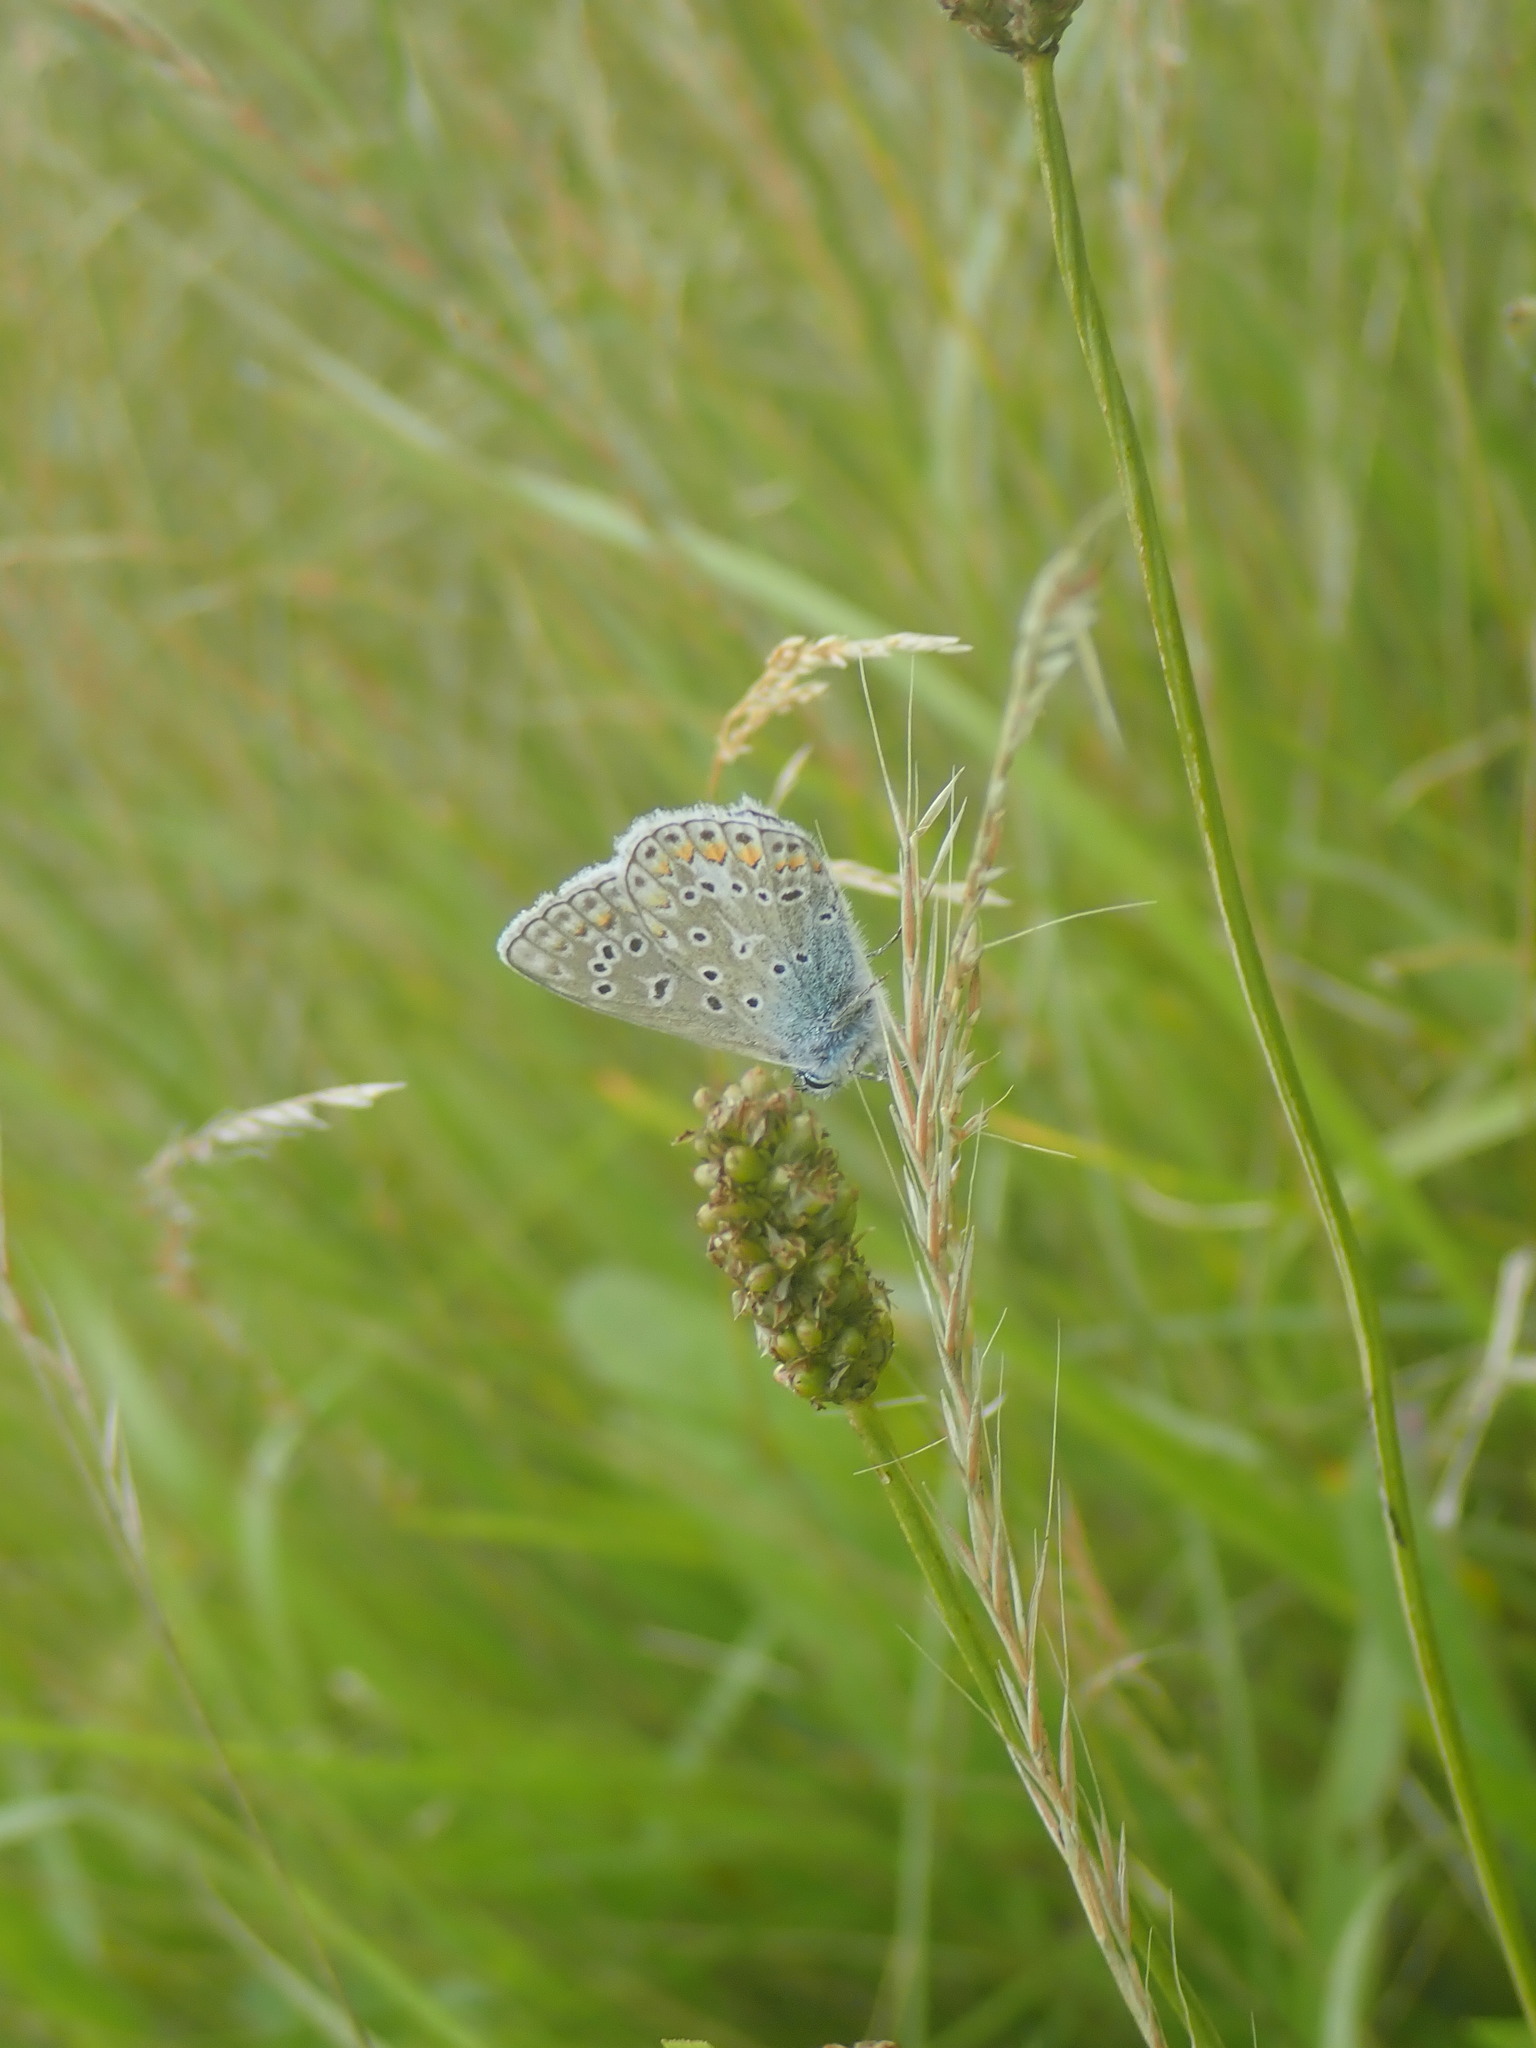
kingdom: Animalia
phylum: Arthropoda
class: Insecta
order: Lepidoptera
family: Lycaenidae
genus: Polyommatus
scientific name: Polyommatus icarus
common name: Common blue
